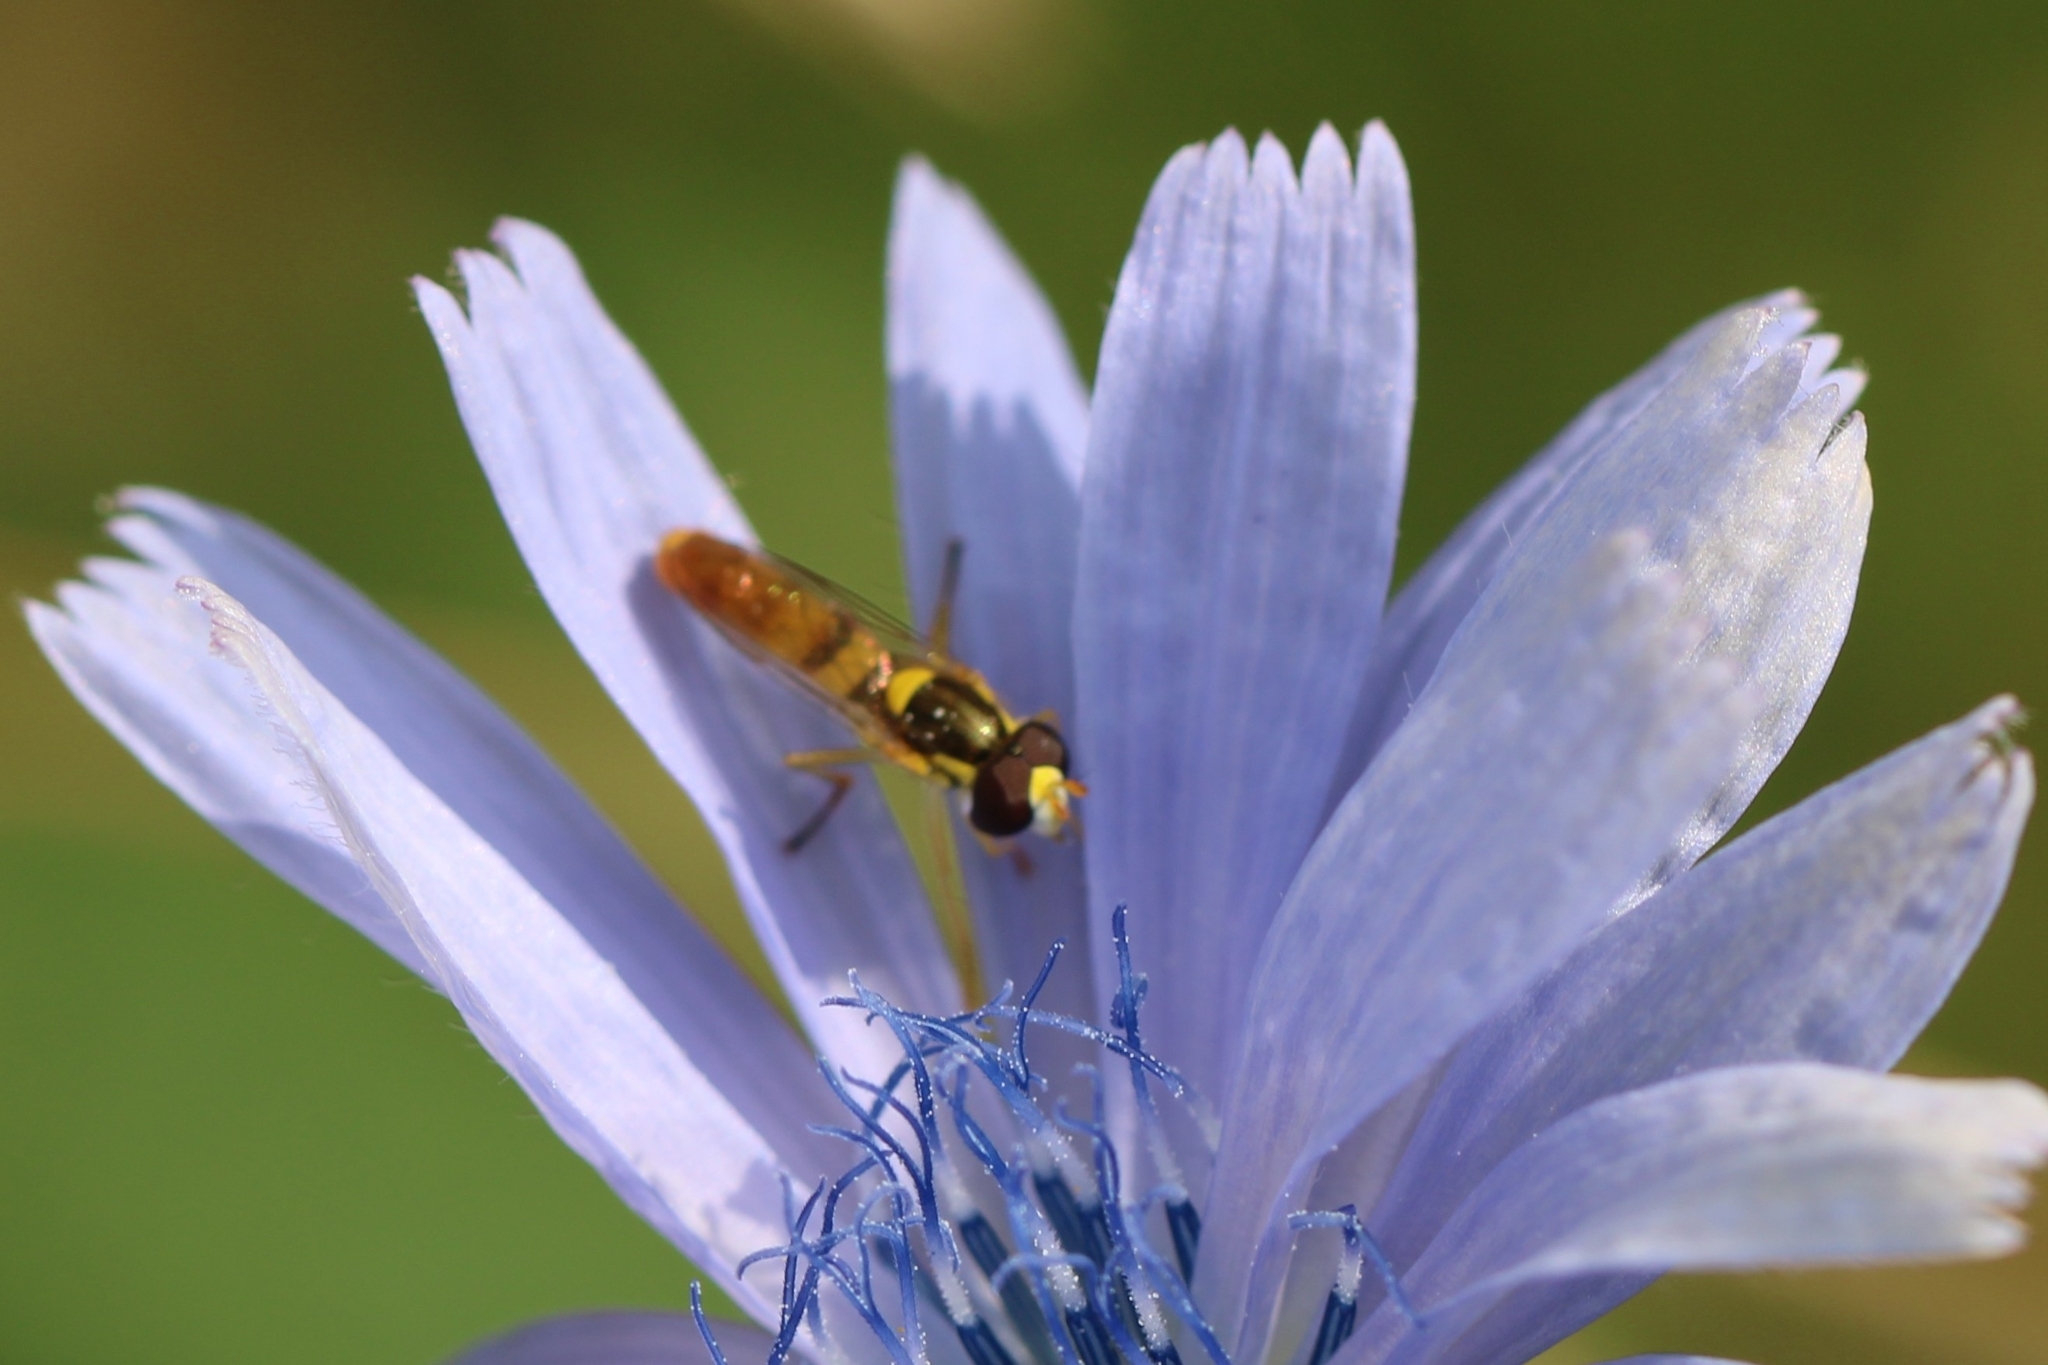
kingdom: Animalia
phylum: Arthropoda
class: Insecta
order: Diptera
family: Syrphidae
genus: Sphaerophoria
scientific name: Sphaerophoria contigua
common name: Tufted globetail
